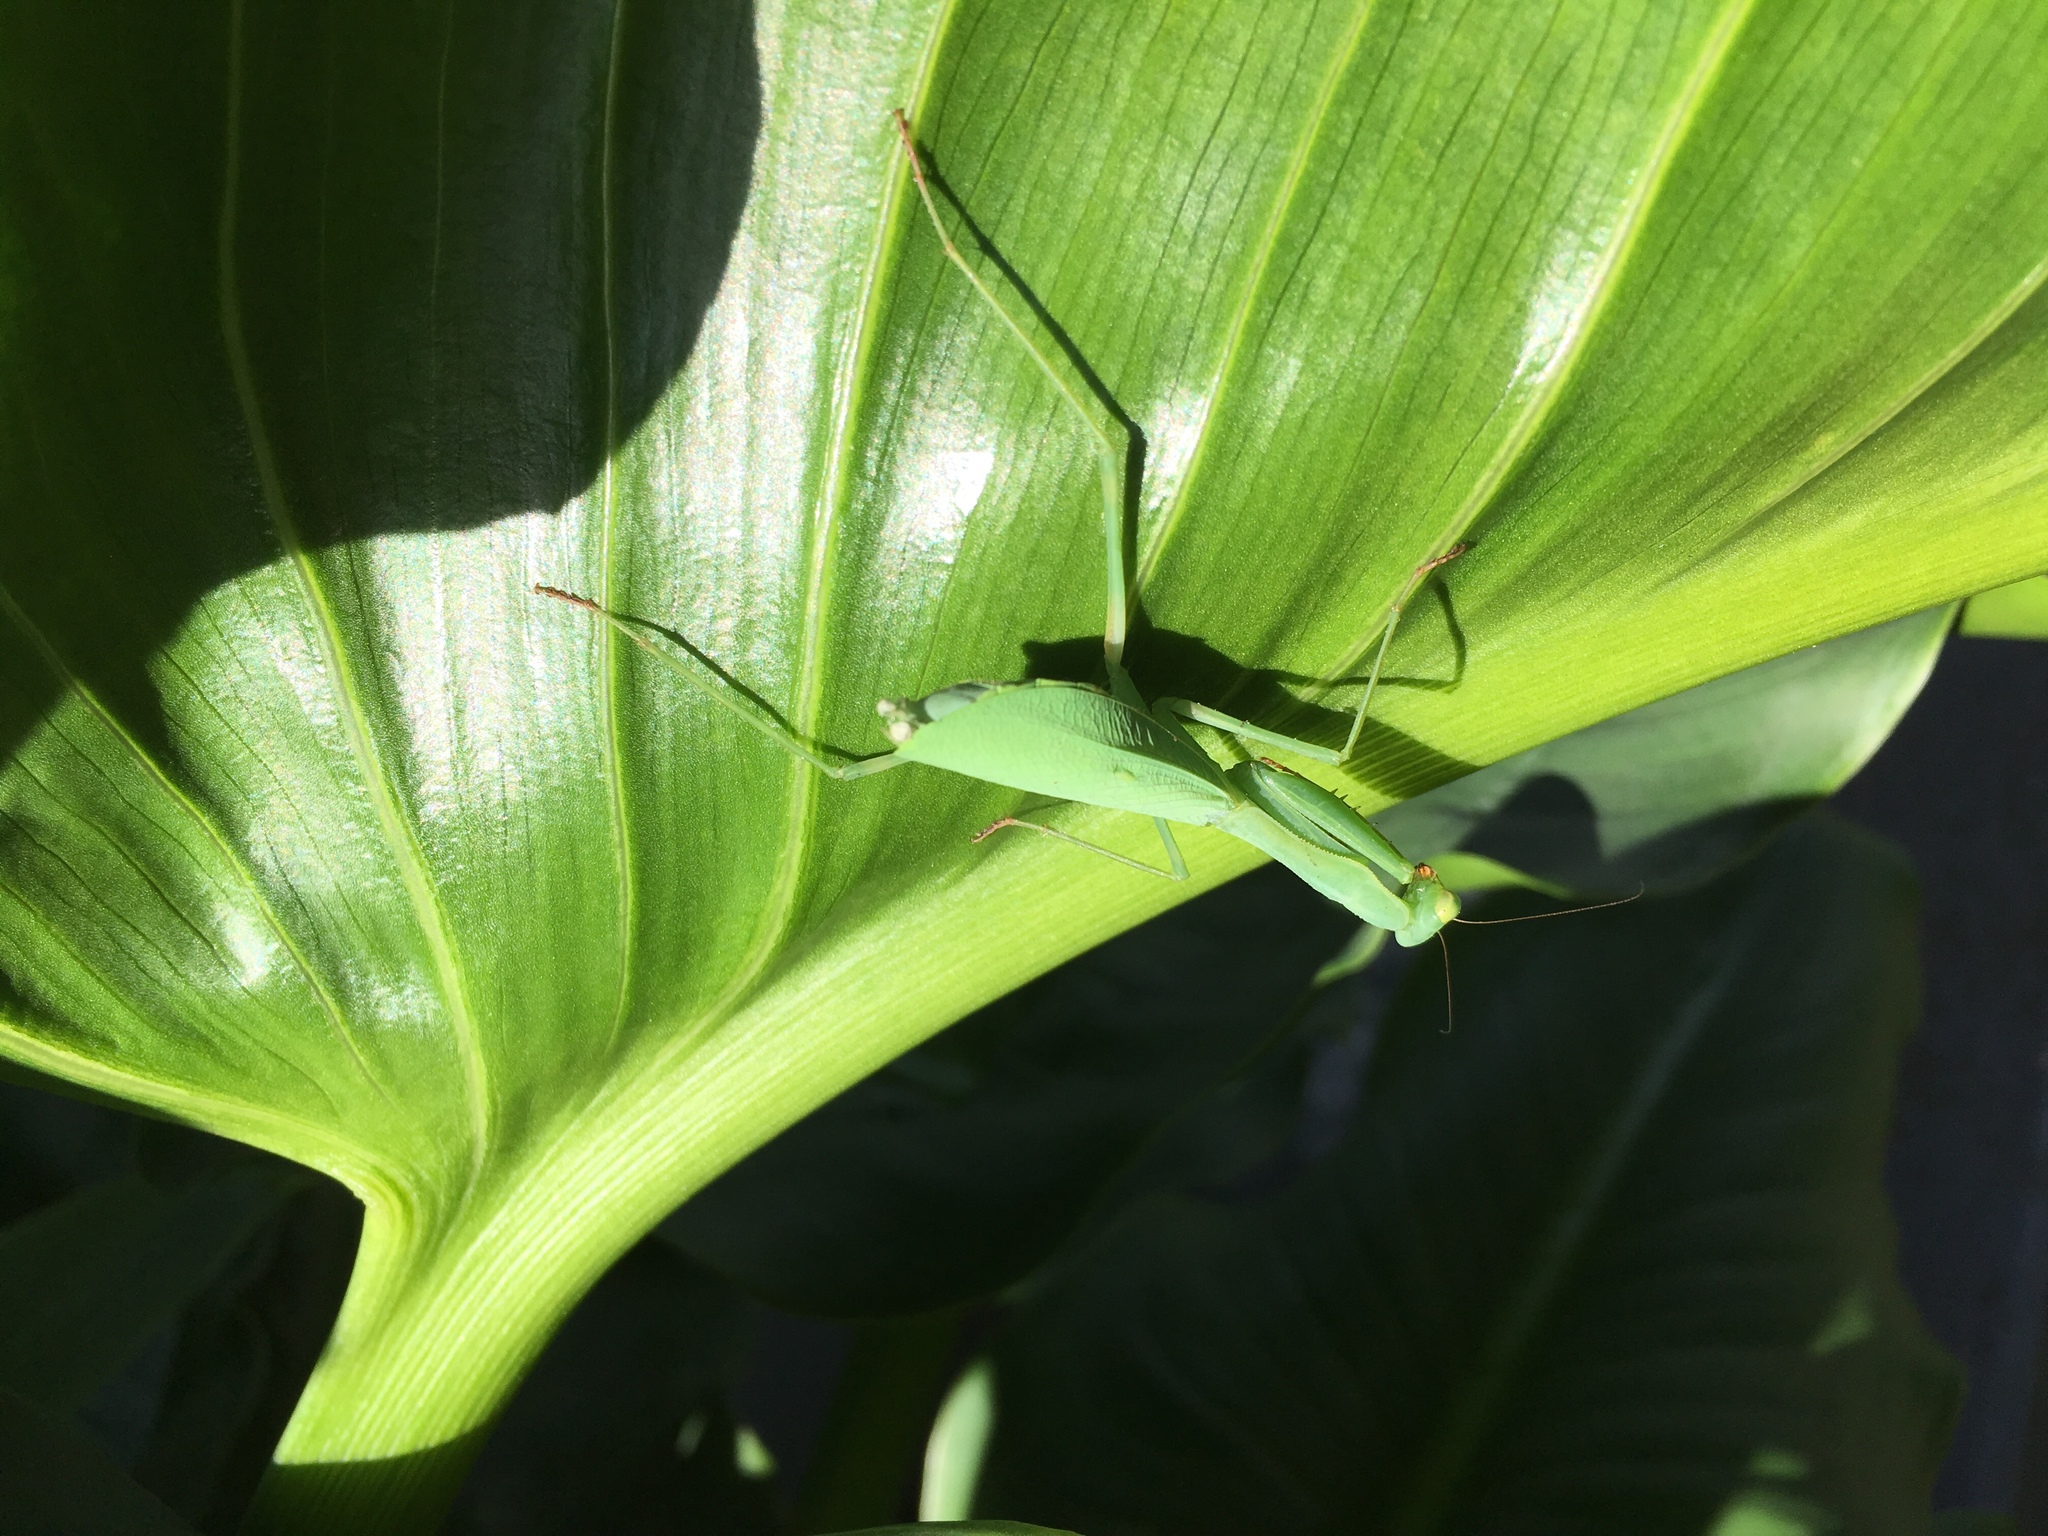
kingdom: Animalia
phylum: Arthropoda
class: Insecta
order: Mantodea
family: Miomantidae
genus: Miomantis
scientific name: Miomantis caffra
